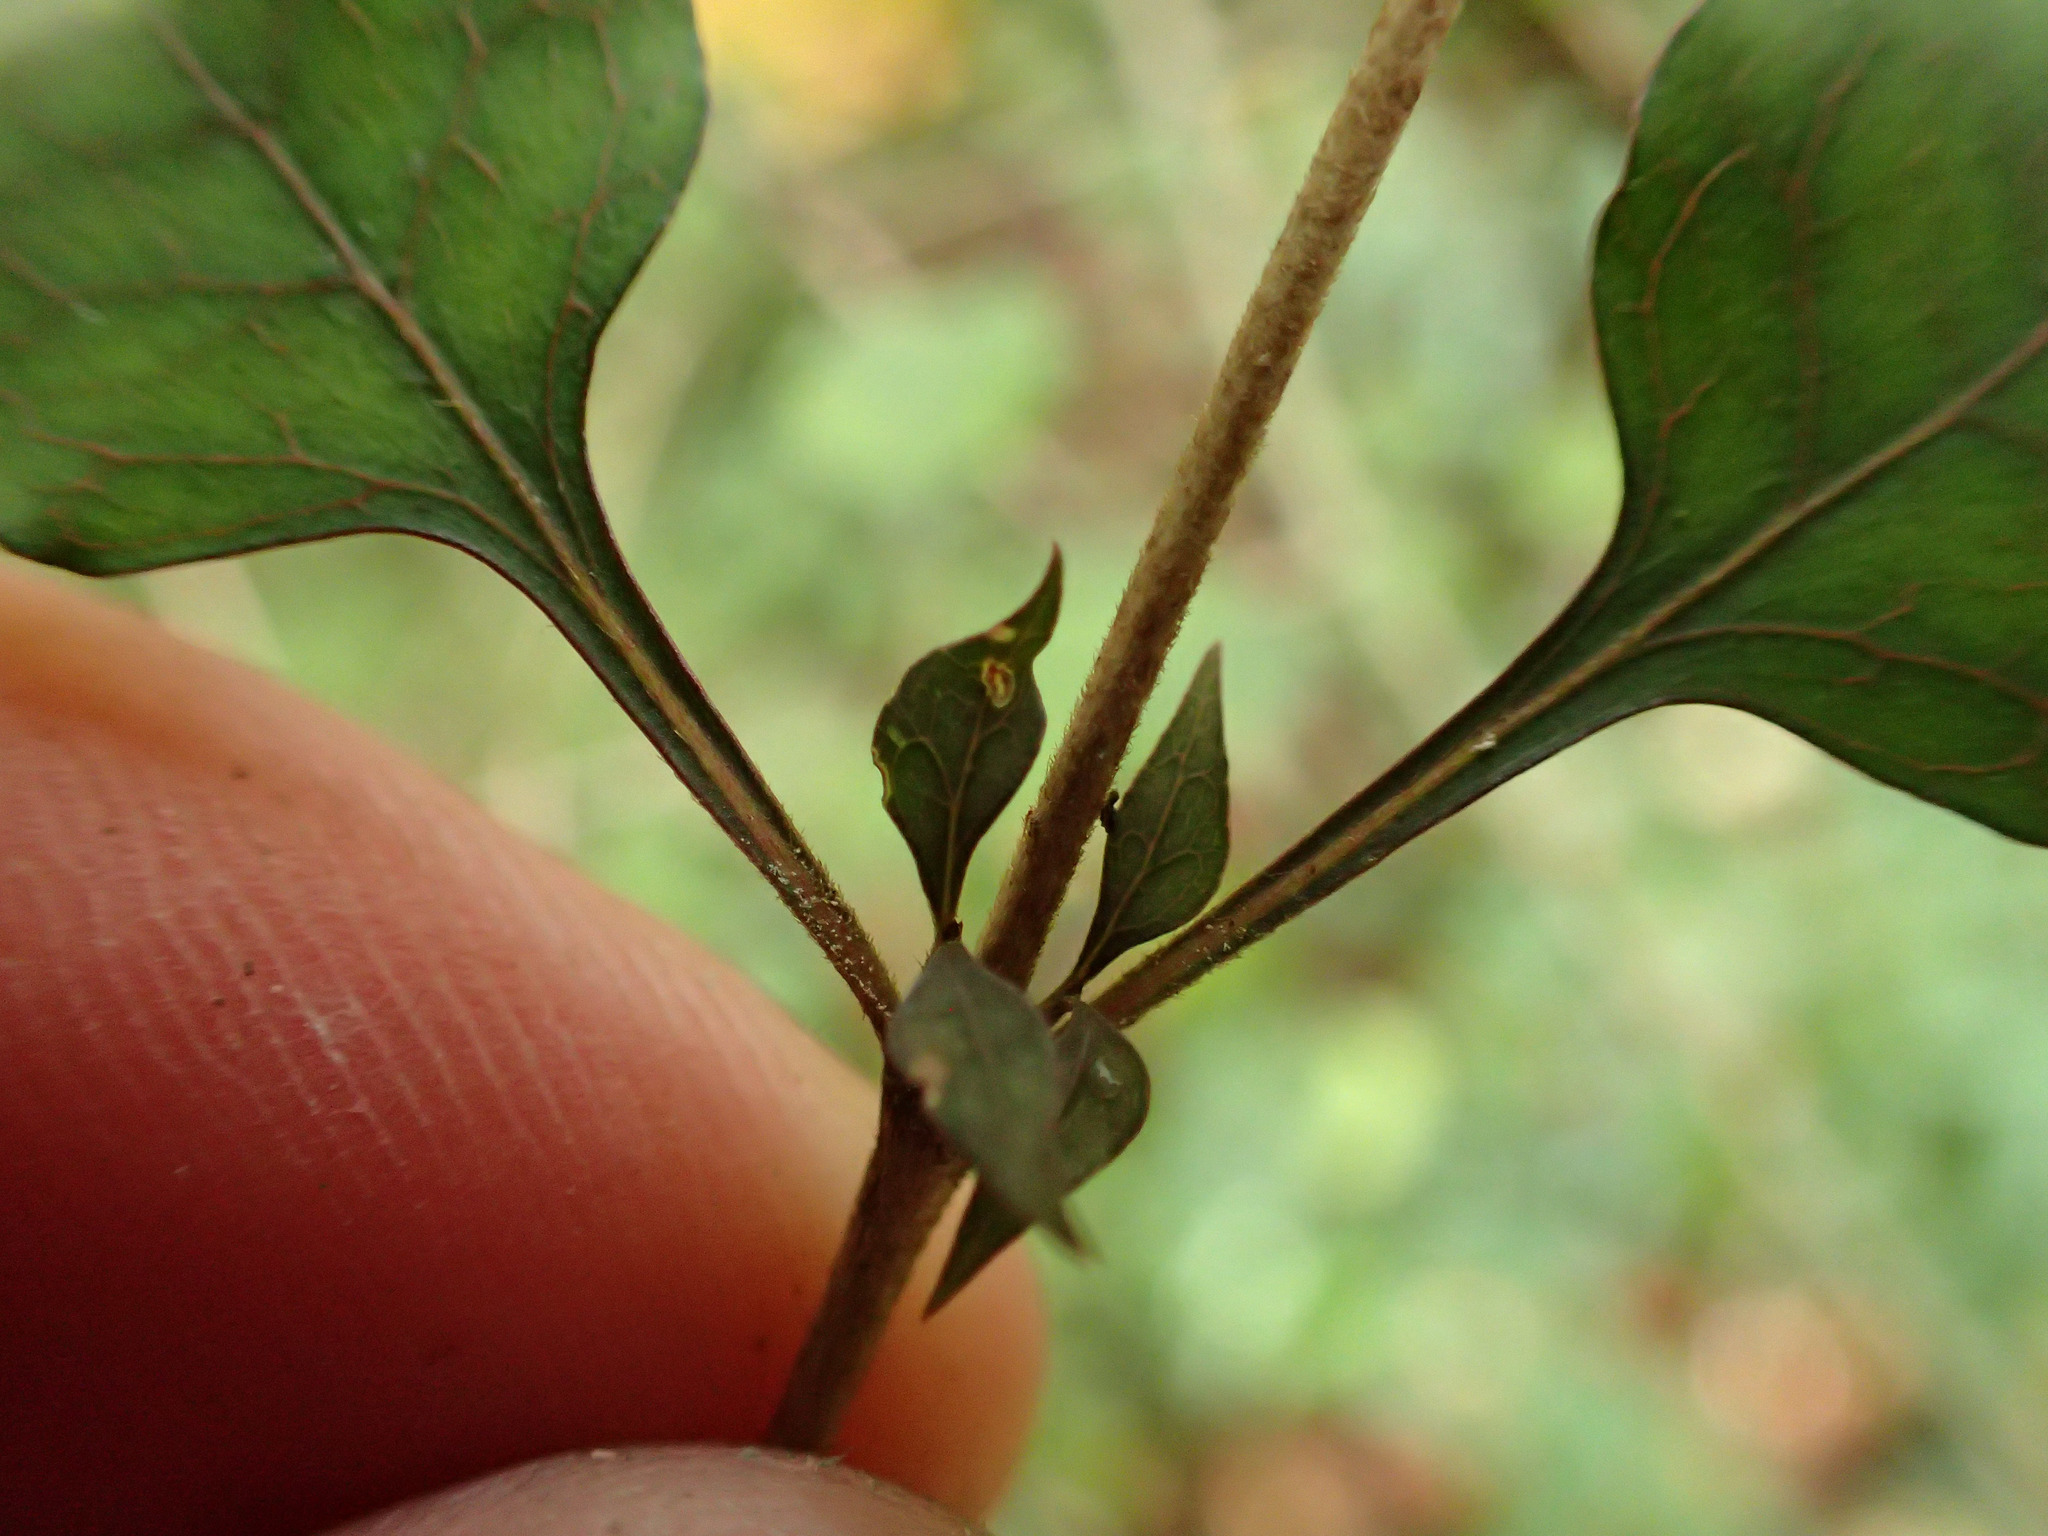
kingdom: Plantae
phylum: Tracheophyta
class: Magnoliopsida
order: Gentianales
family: Rubiaceae
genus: Coprosma
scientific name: Coprosma areolata
